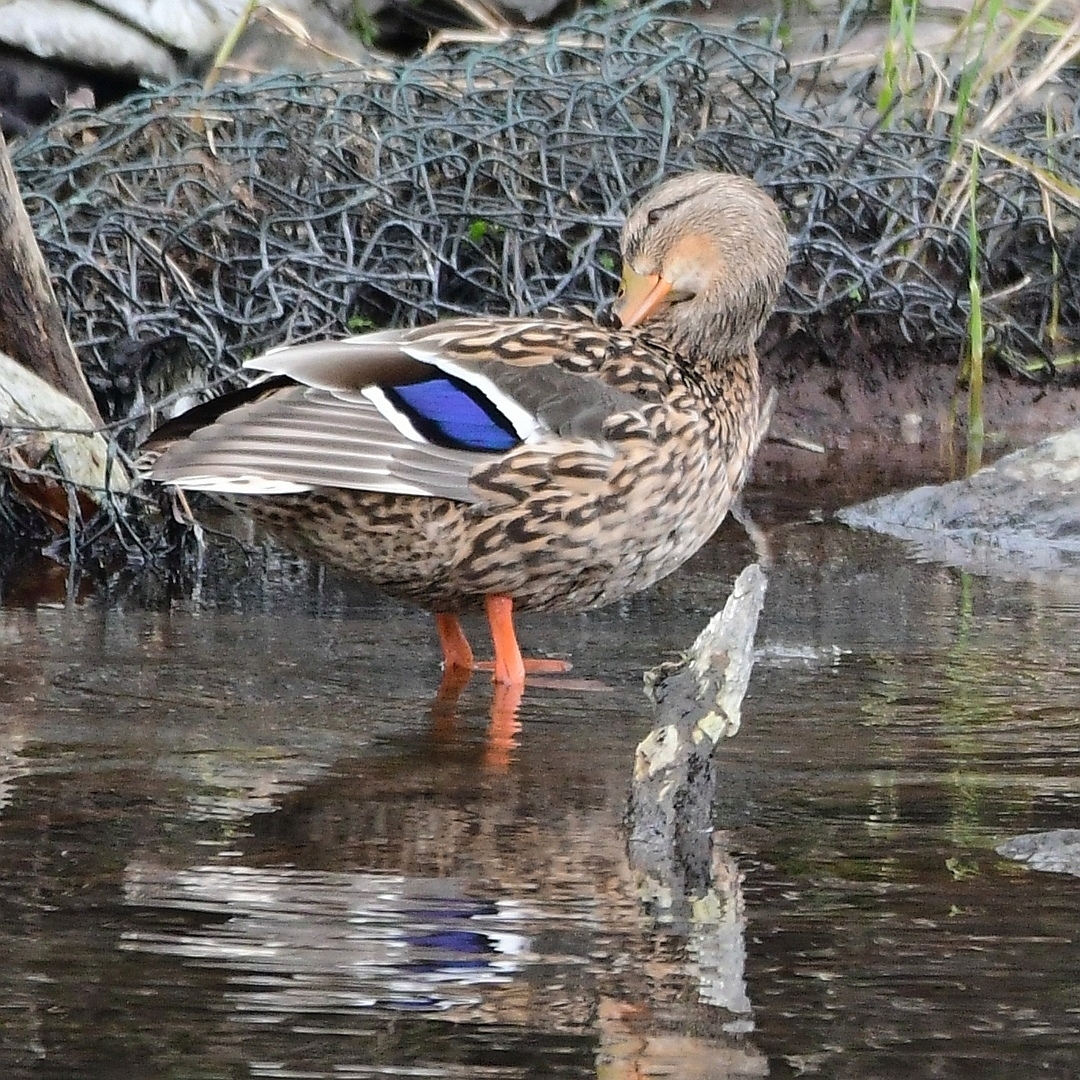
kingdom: Animalia
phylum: Chordata
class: Aves
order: Anseriformes
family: Anatidae
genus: Anas
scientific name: Anas platyrhynchos
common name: Mallard
